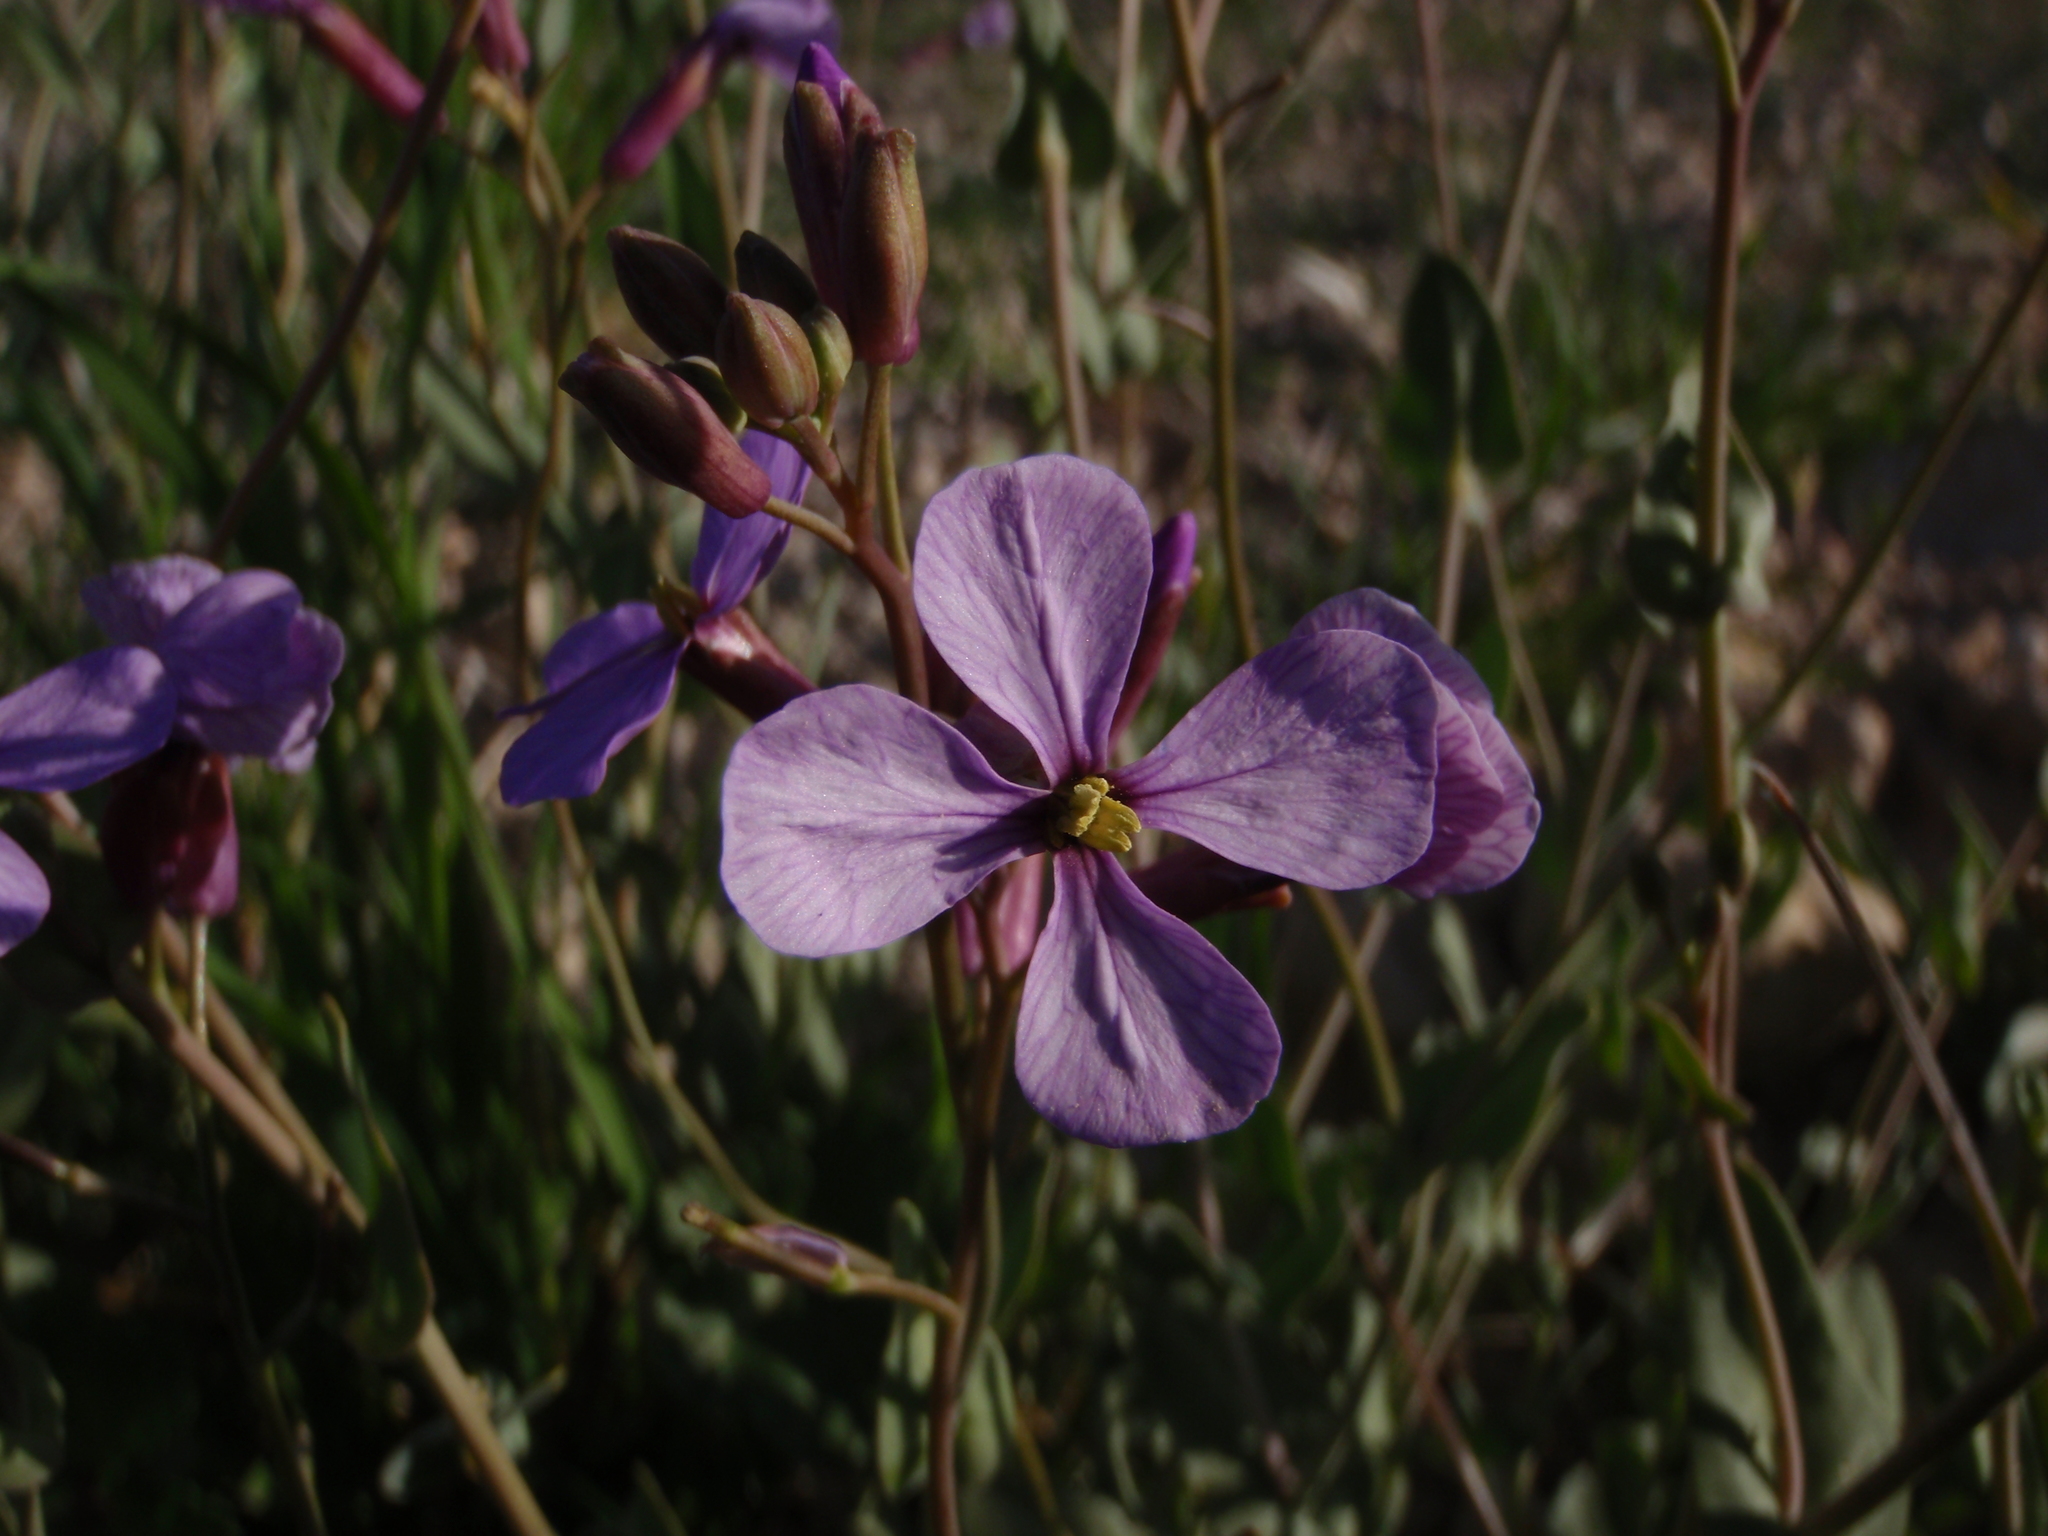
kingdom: Plantae
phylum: Tracheophyta
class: Magnoliopsida
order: Brassicales
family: Brassicaceae
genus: Moricandia
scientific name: Moricandia arvensis
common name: Purple mistress
